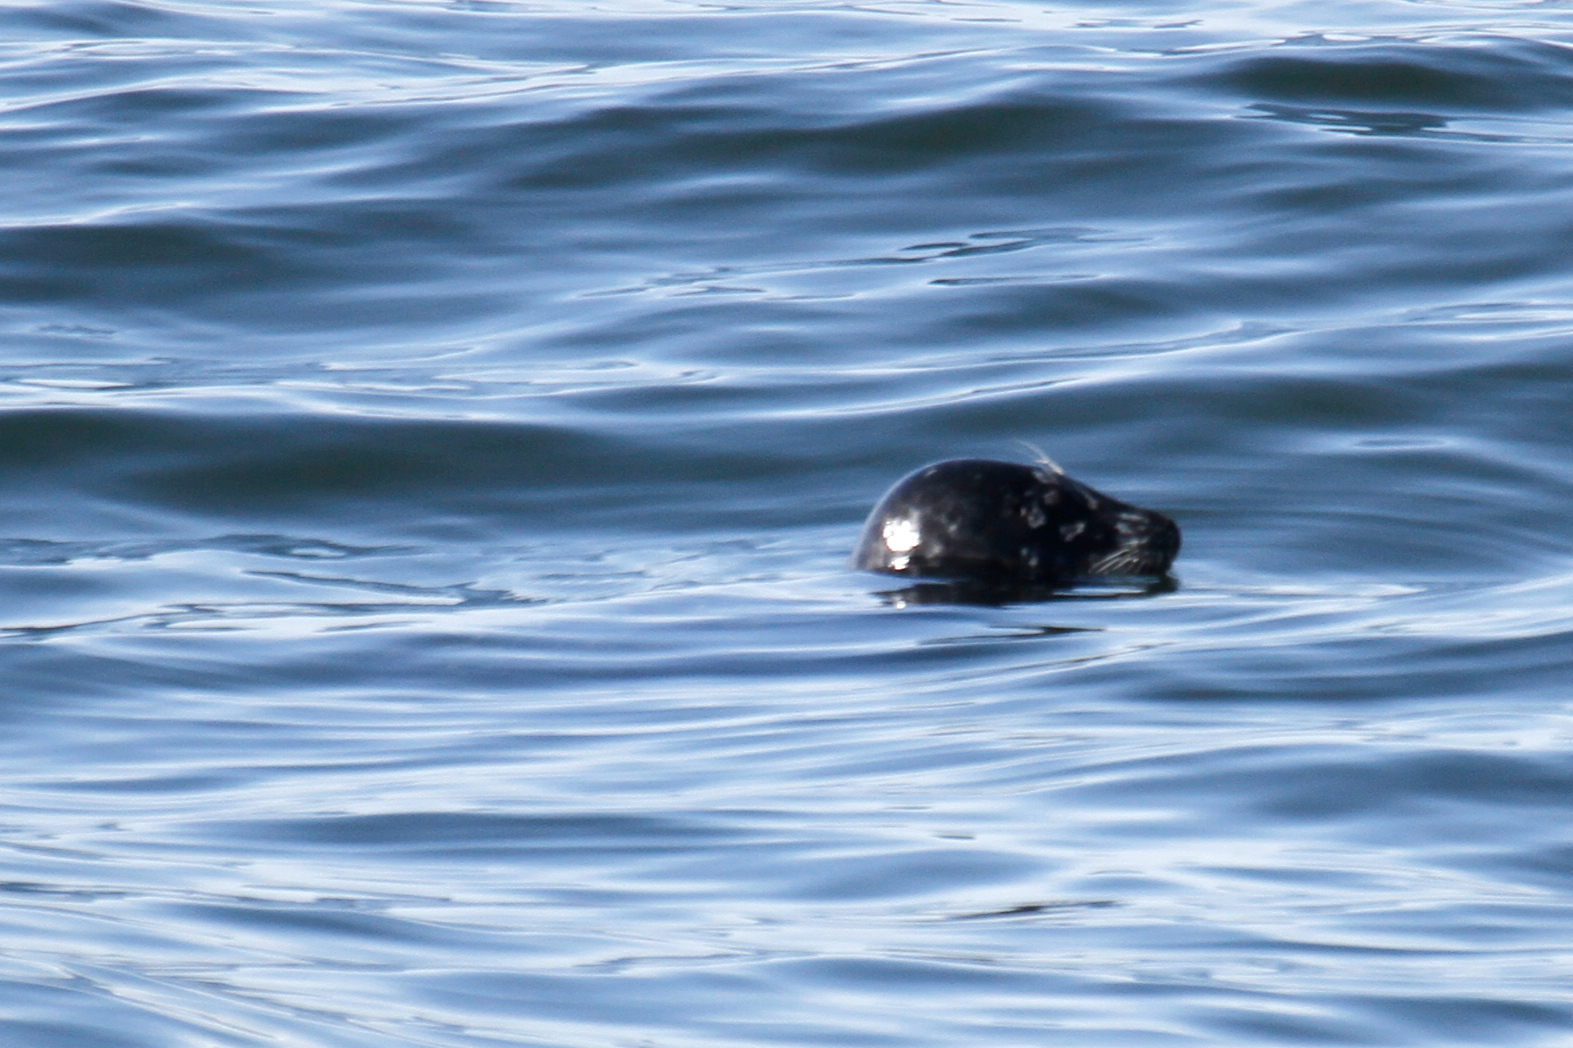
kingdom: Animalia
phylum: Chordata
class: Mammalia
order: Carnivora
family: Phocidae
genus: Phoca
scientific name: Phoca vitulina
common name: Harbor seal
